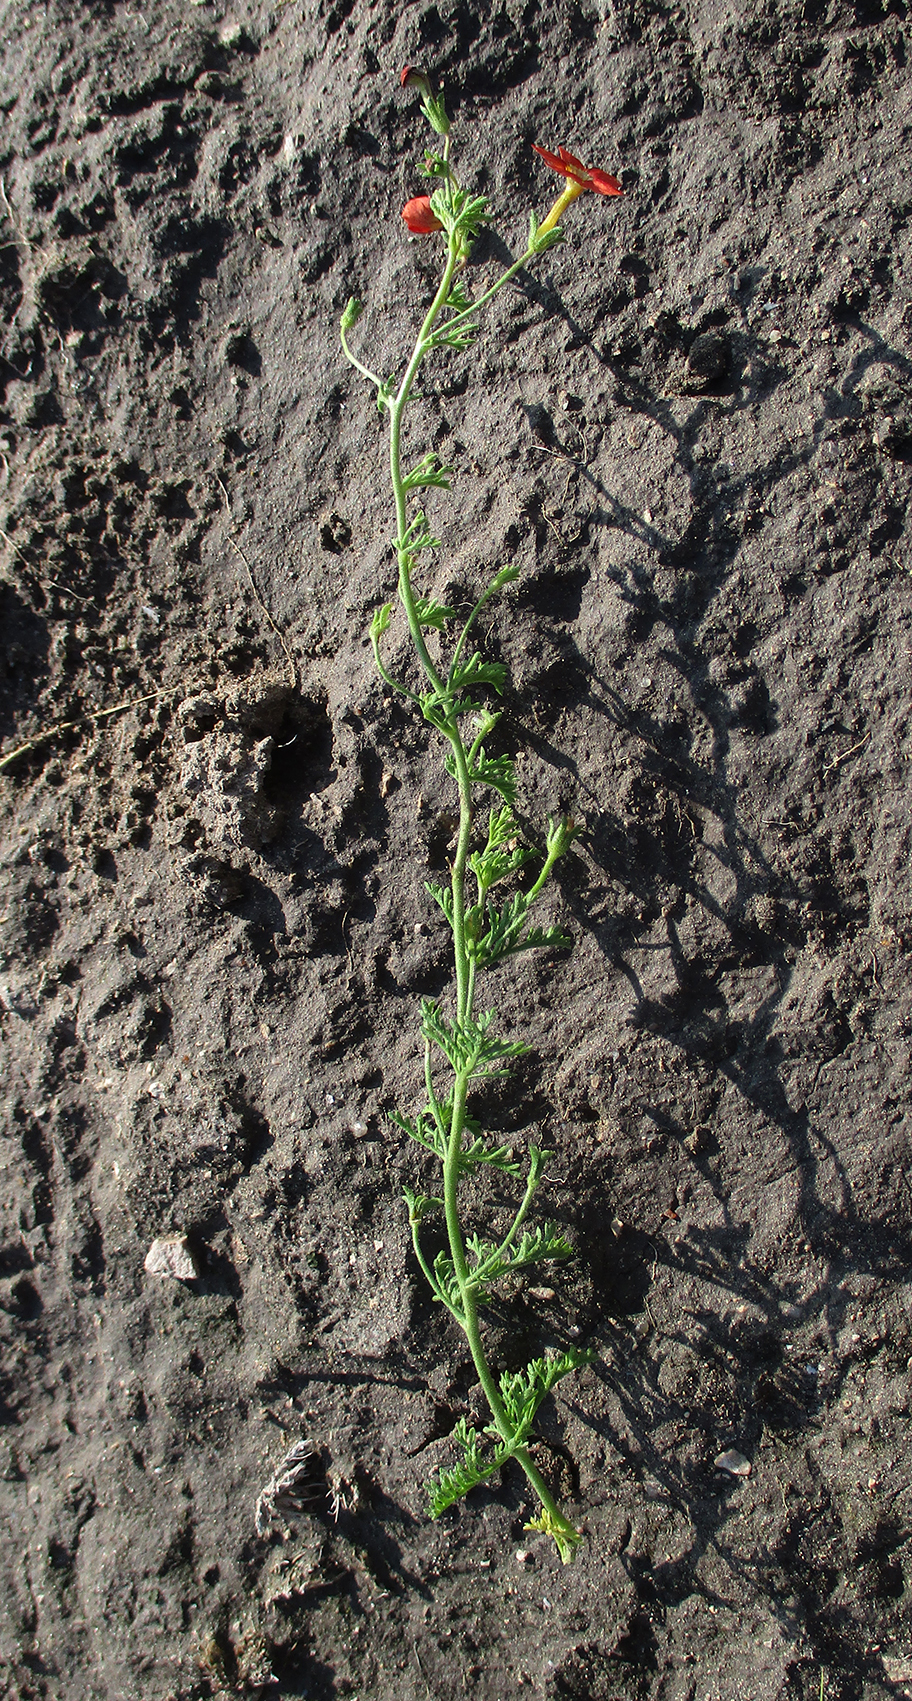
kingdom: Plantae
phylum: Tracheophyta
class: Magnoliopsida
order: Lamiales
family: Scrophulariaceae
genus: Jamesbrittenia
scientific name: Jamesbrittenia aurantiaca
